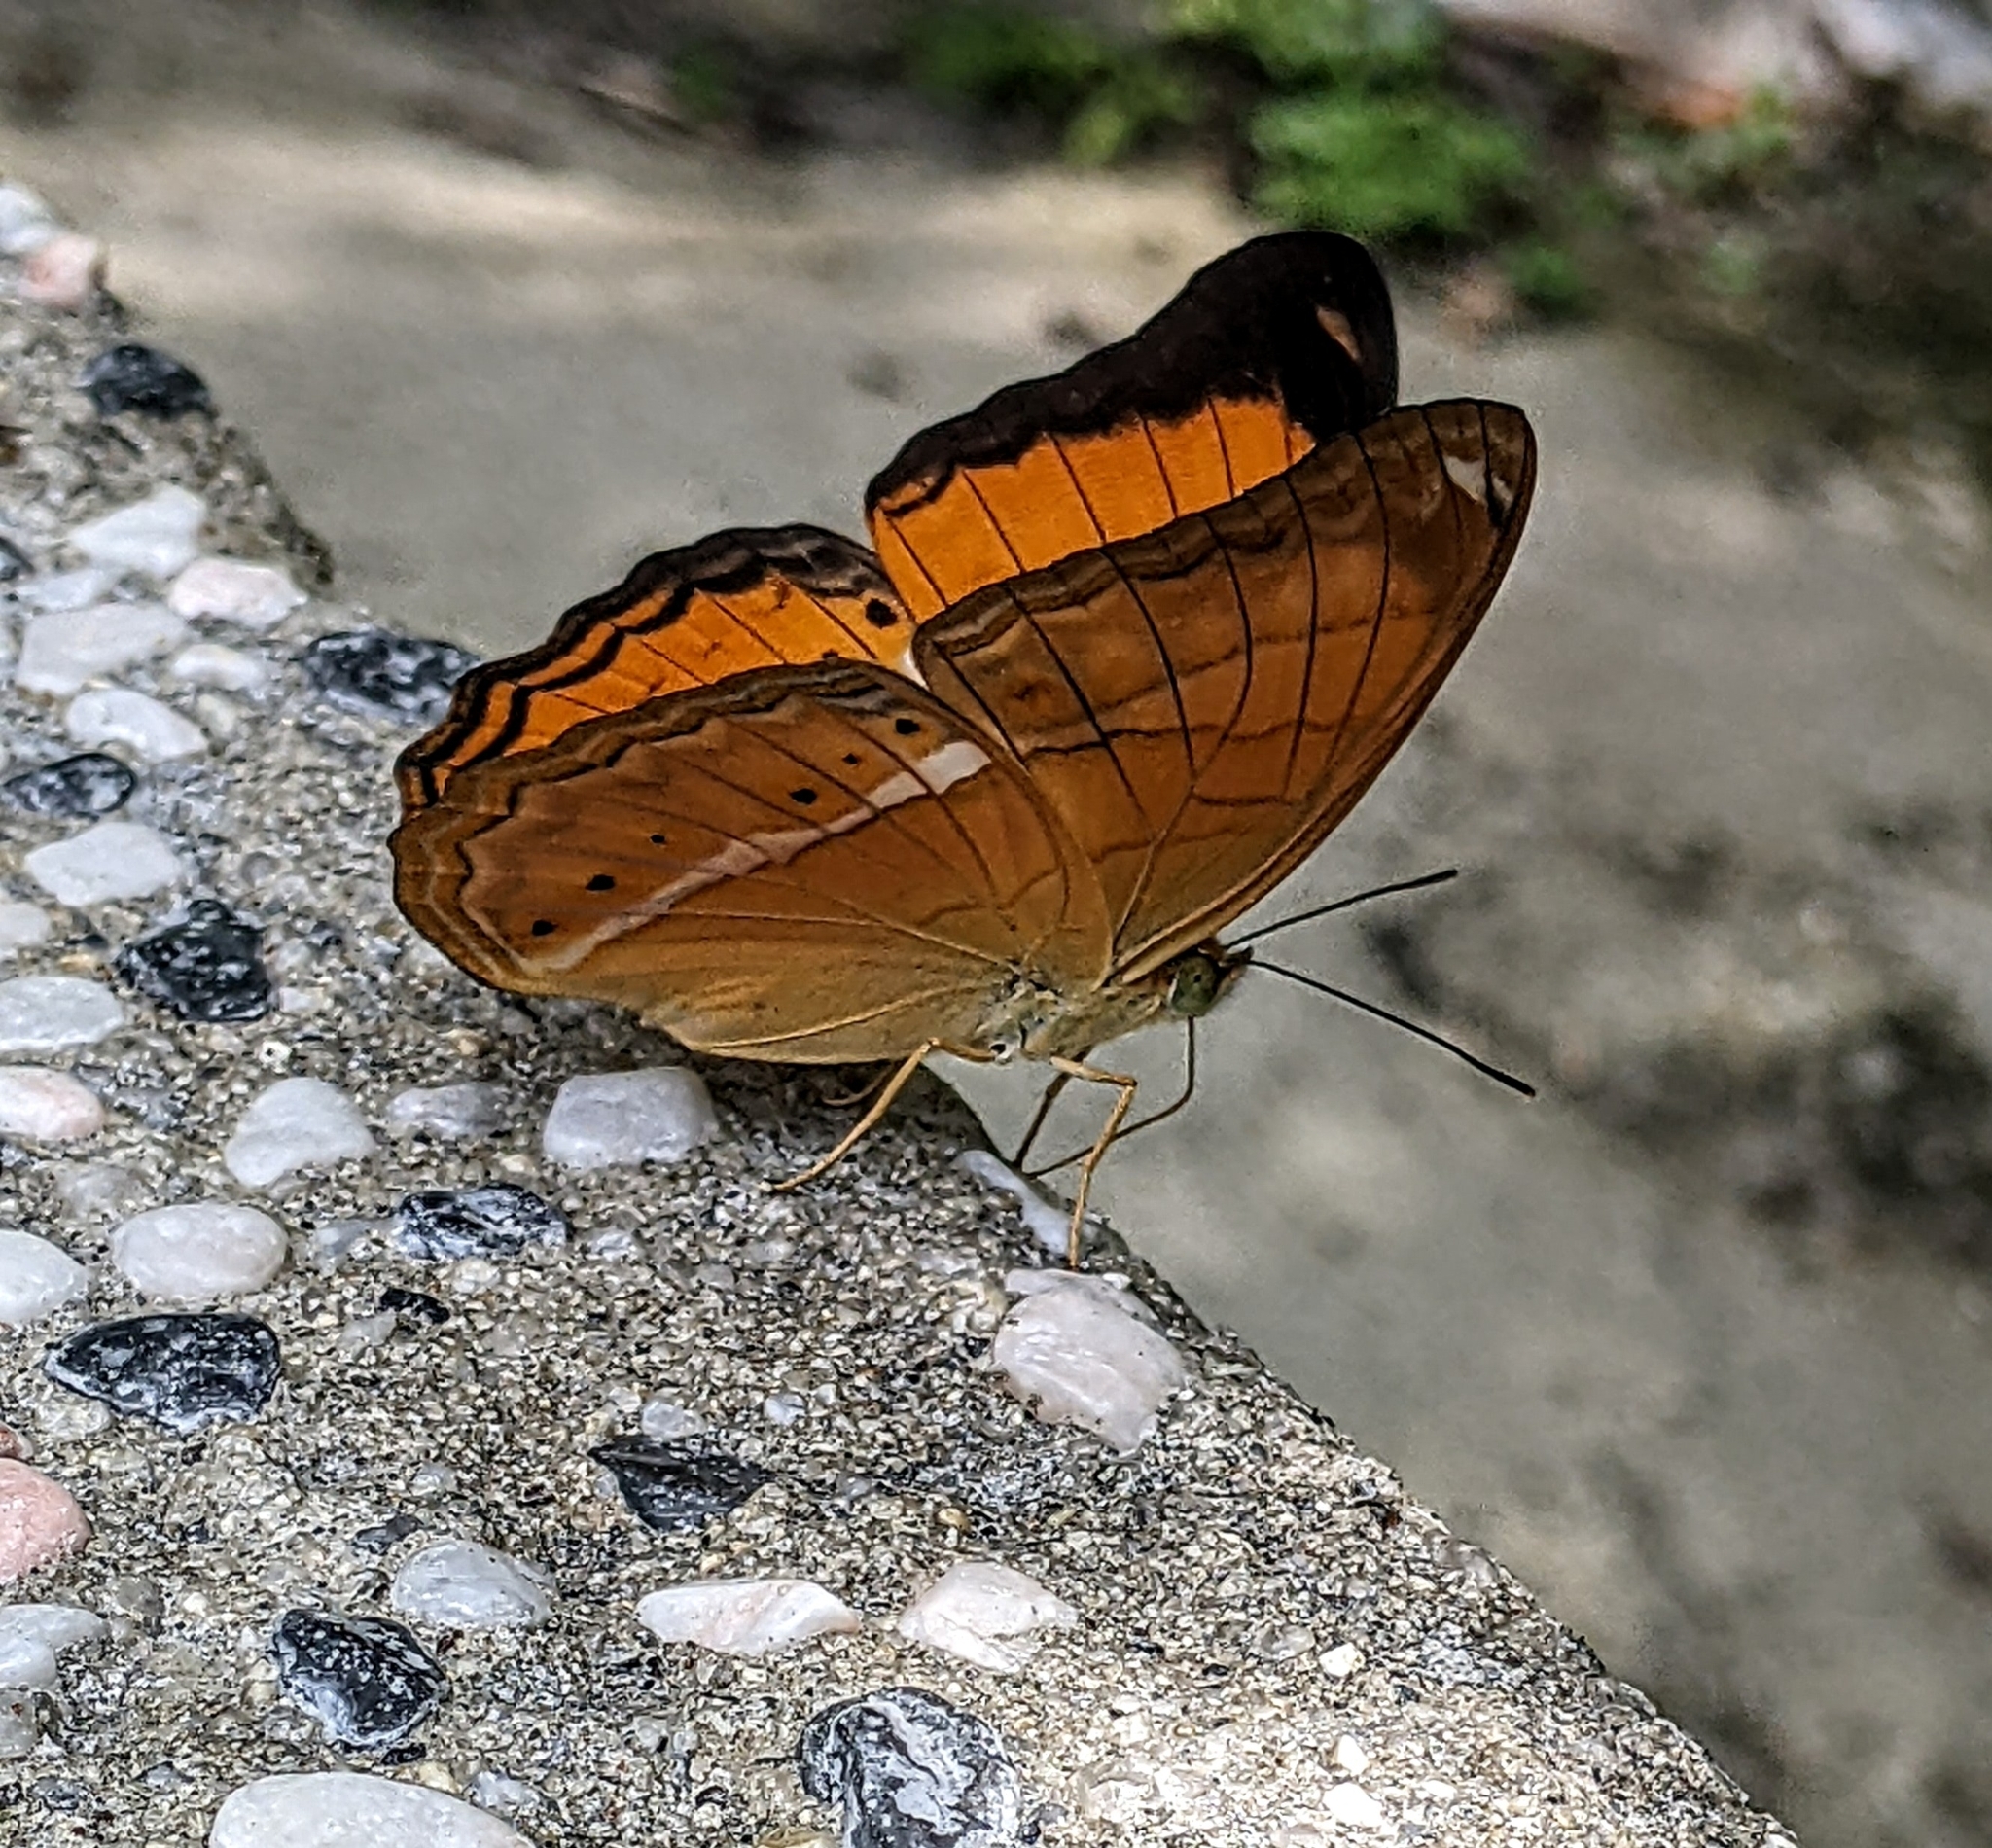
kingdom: Animalia
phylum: Arthropoda
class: Insecta
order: Lepidoptera
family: Nymphalidae
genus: Cirrochroa
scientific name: Cirrochroa emalea
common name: Malay yeoman
